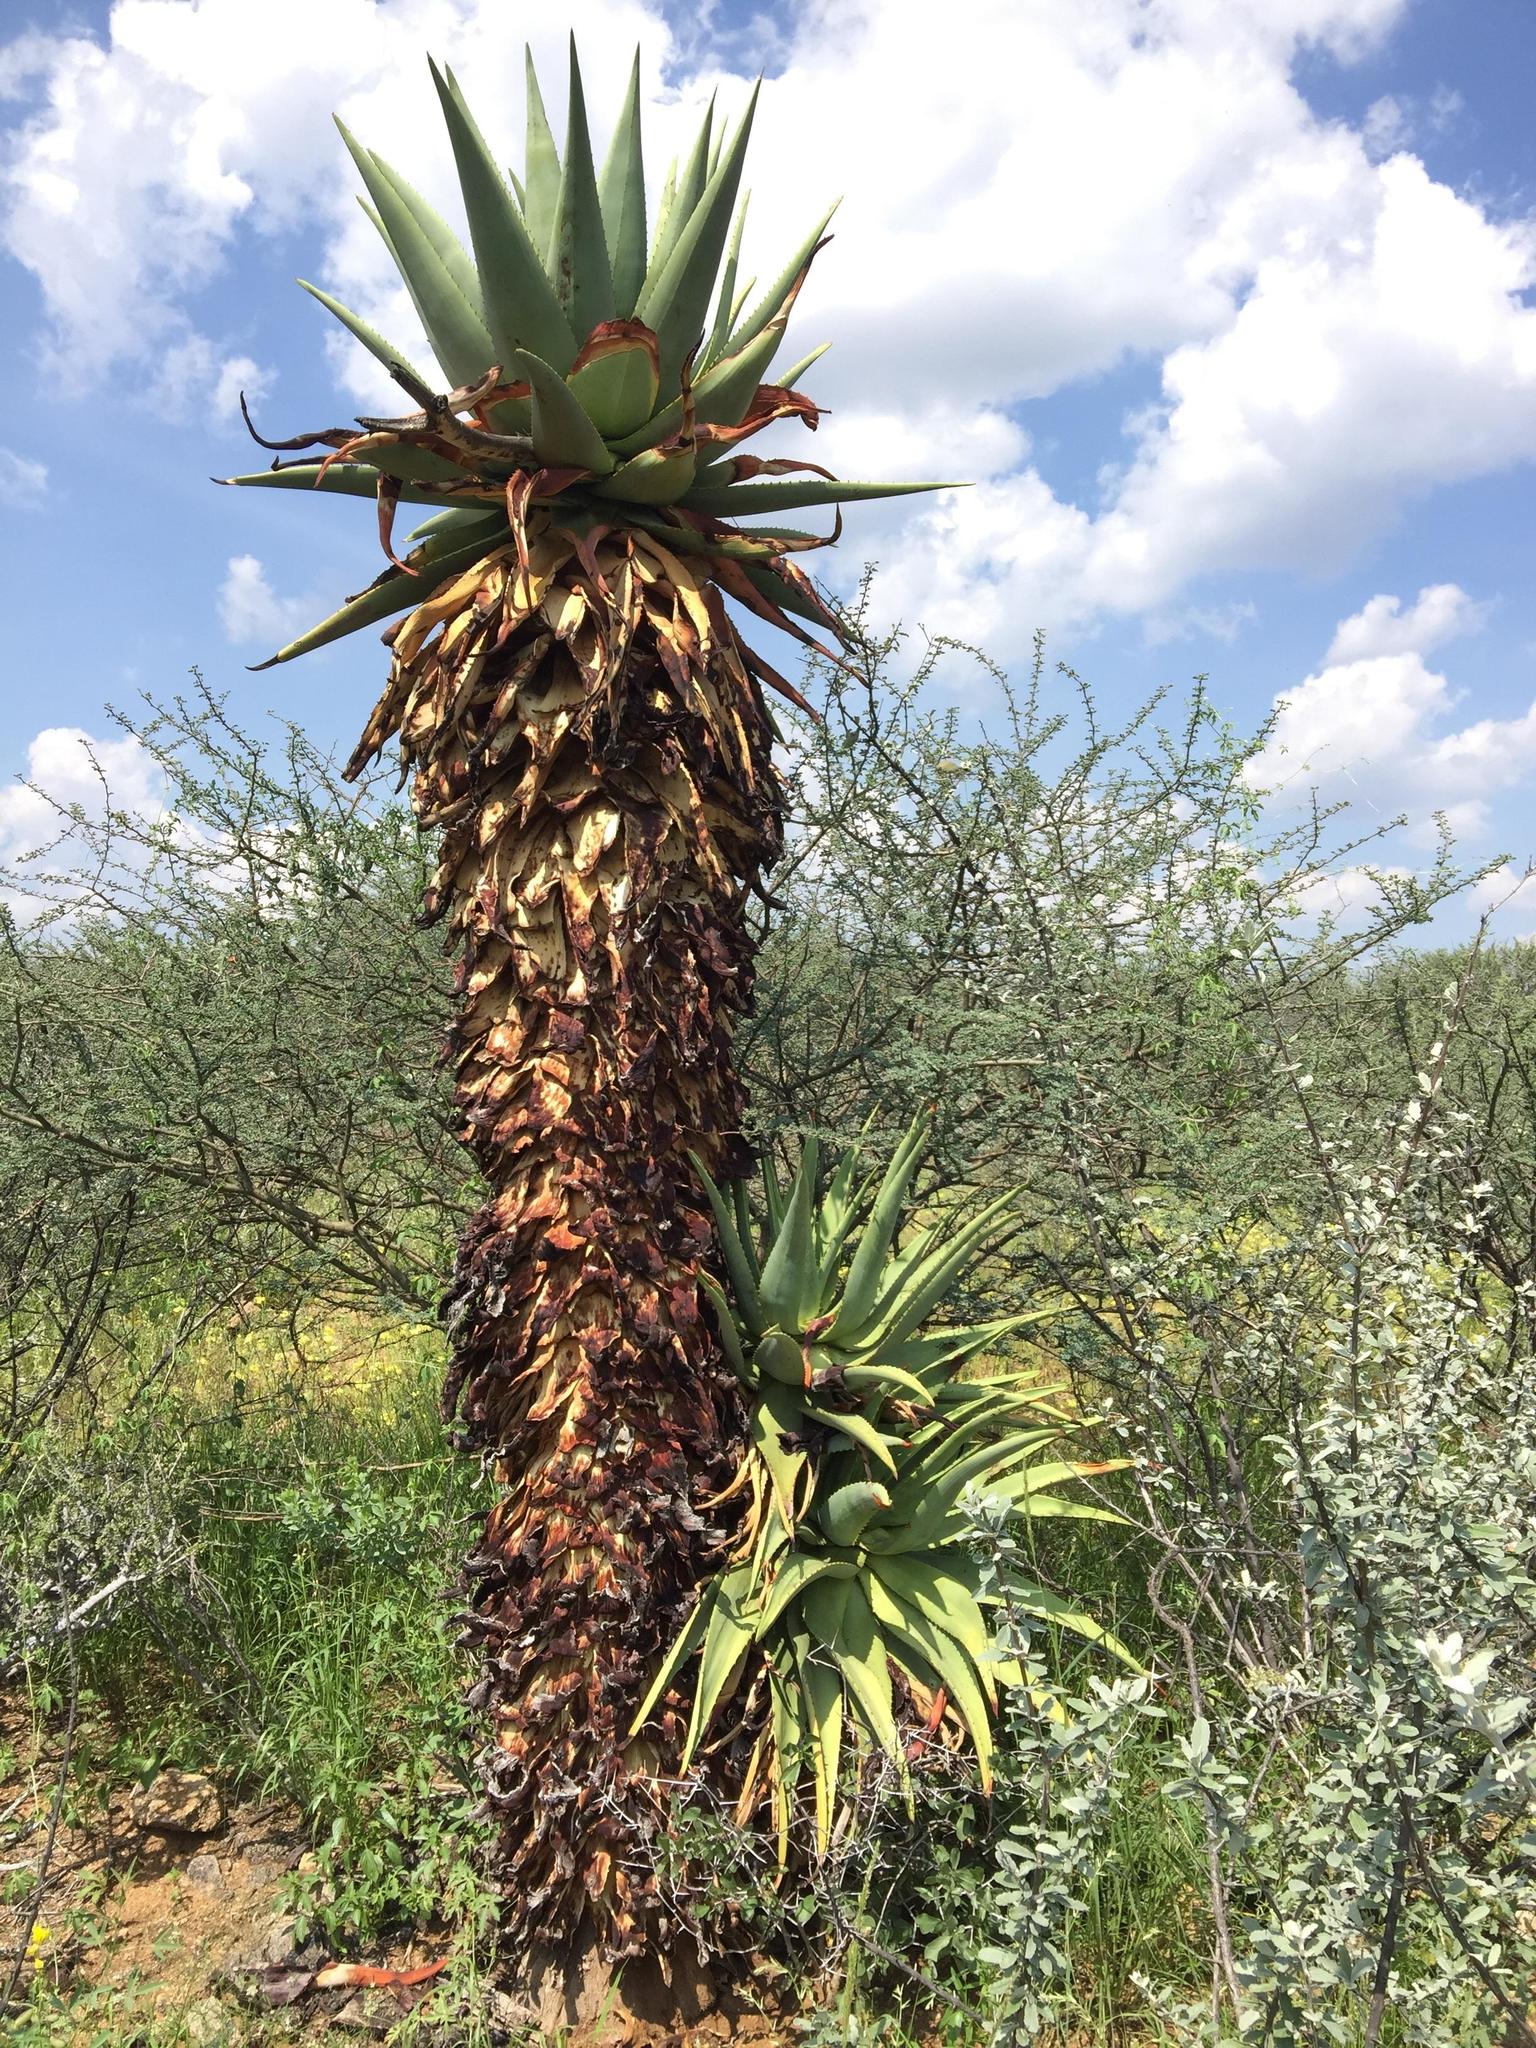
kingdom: Plantae
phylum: Tracheophyta
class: Liliopsida
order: Asparagales
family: Asphodelaceae
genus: Aloe
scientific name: Aloe littoralis
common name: Luanda tree aloe
